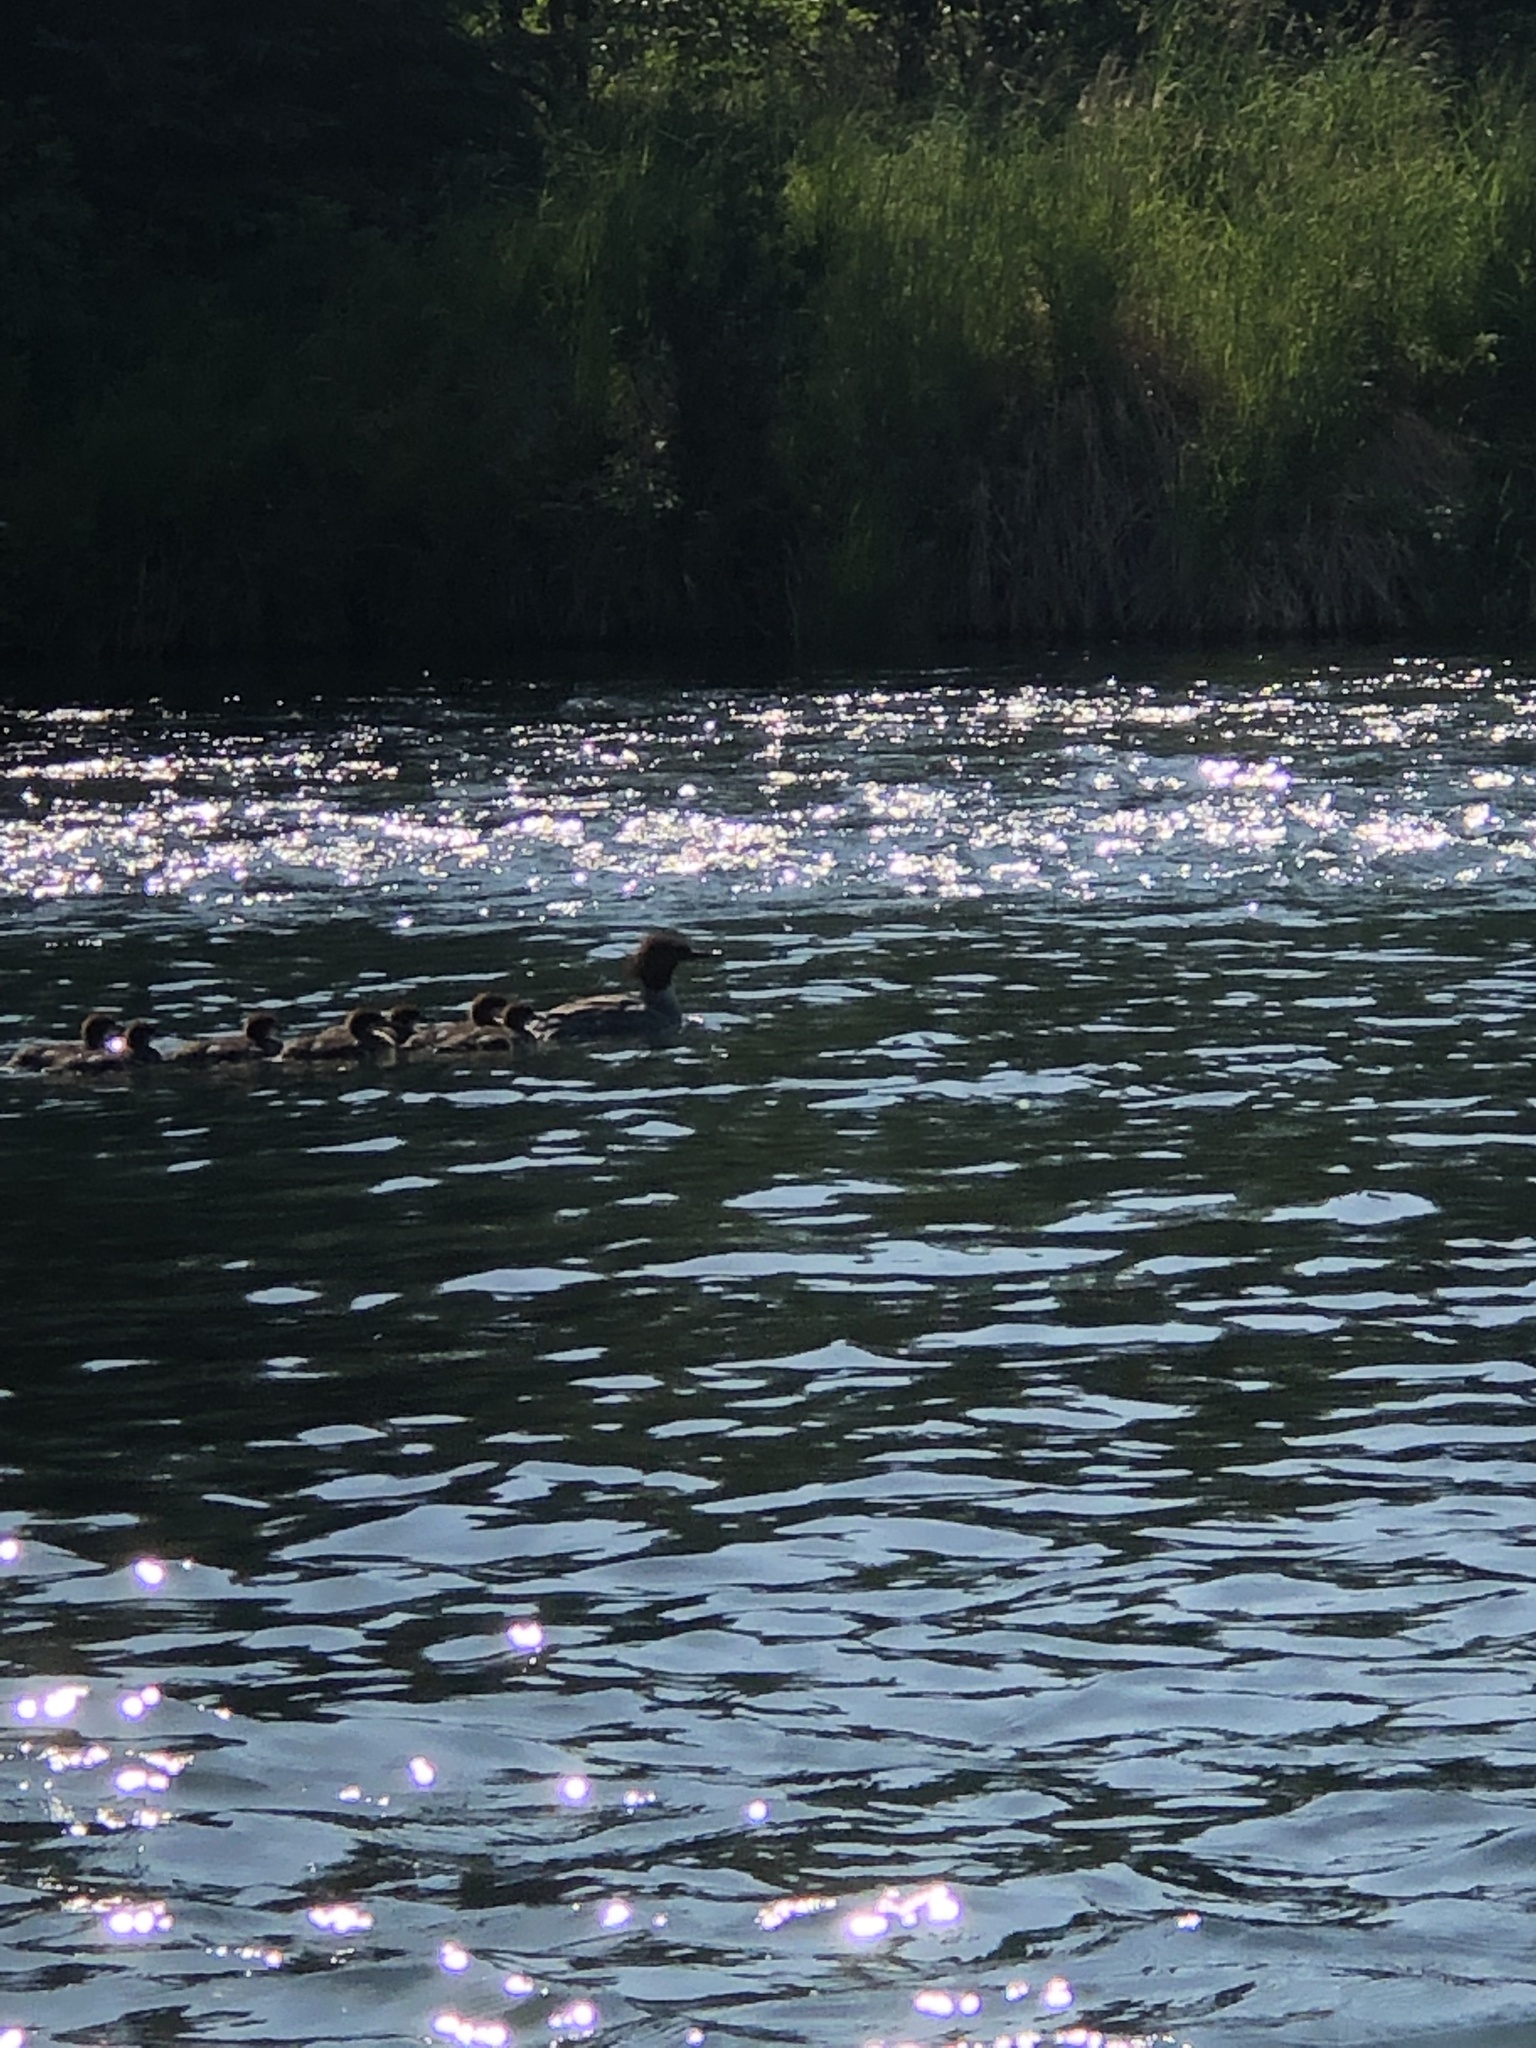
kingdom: Animalia
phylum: Chordata
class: Aves
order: Anseriformes
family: Anatidae
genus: Mergus
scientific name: Mergus merganser
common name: Common merganser
